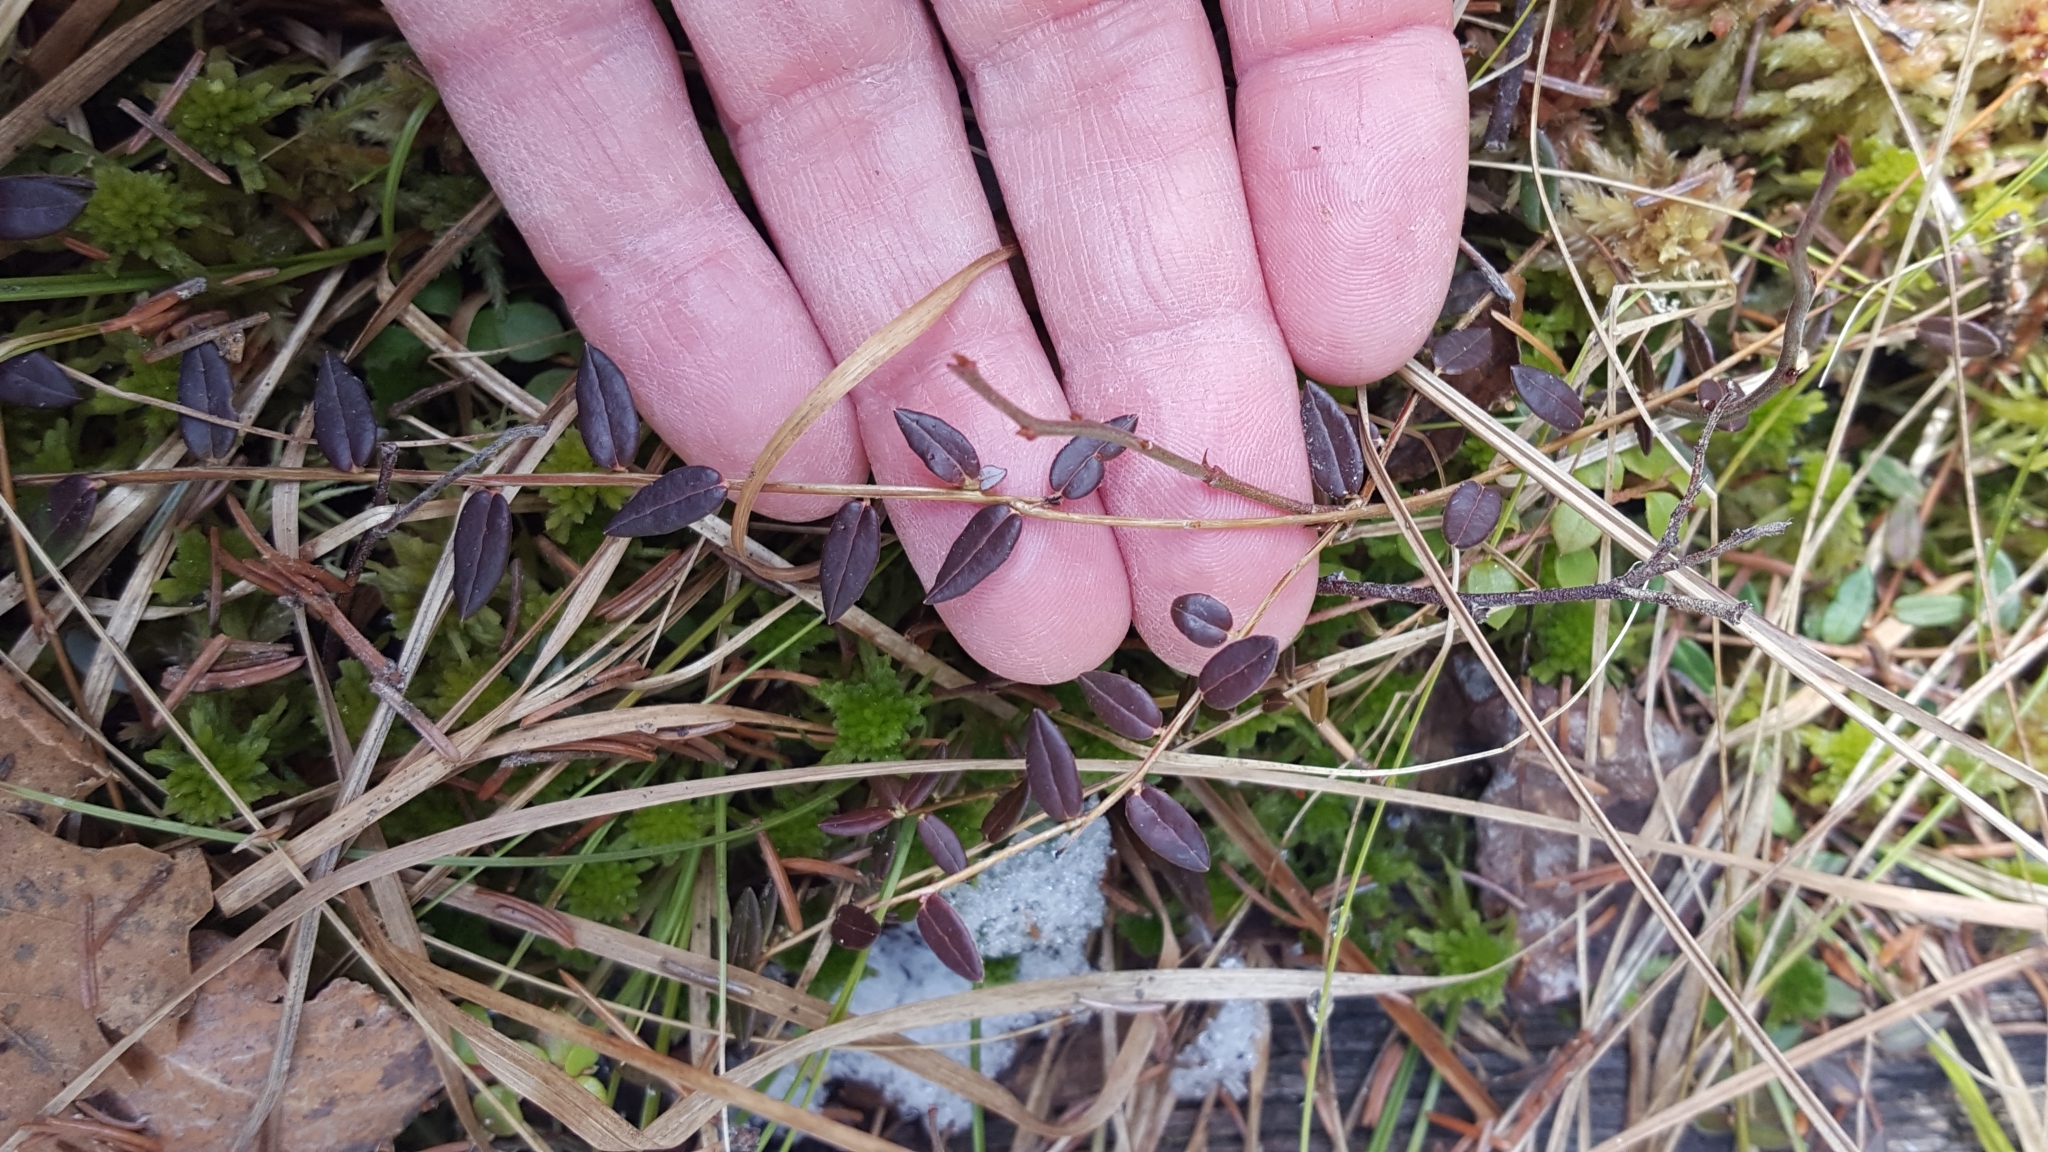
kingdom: Plantae
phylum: Tracheophyta
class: Magnoliopsida
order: Ericales
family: Ericaceae
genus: Vaccinium
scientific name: Vaccinium oxycoccos
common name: Cranberry
